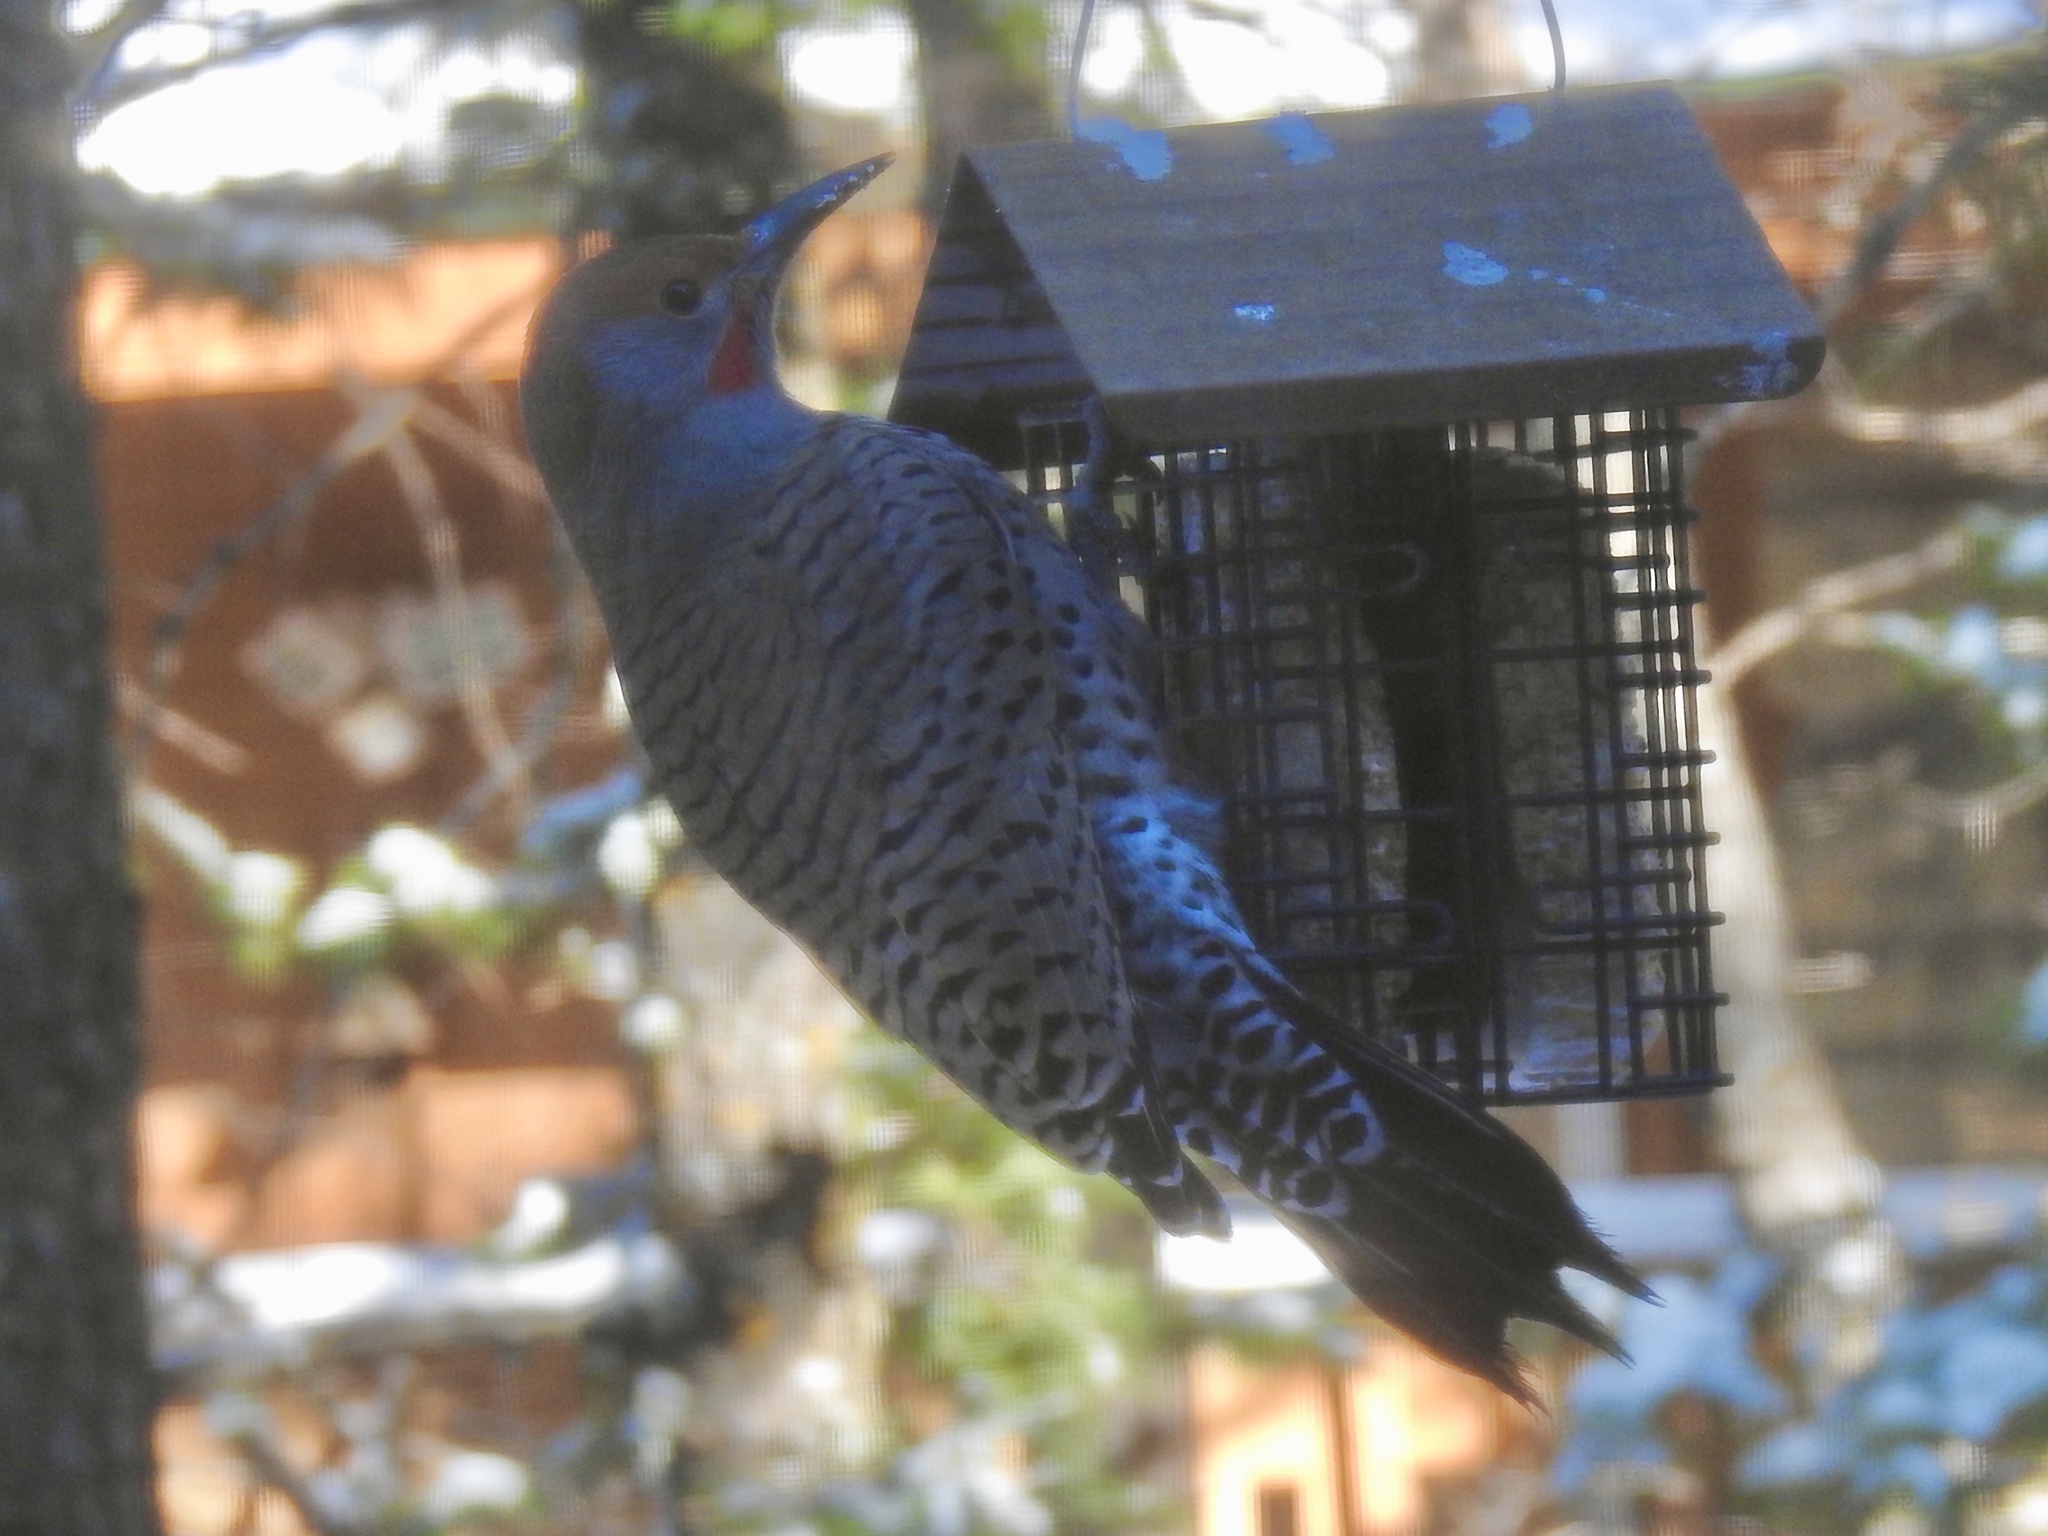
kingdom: Animalia
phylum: Chordata
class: Aves
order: Piciformes
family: Picidae
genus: Colaptes
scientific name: Colaptes auratus
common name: Northern flicker
